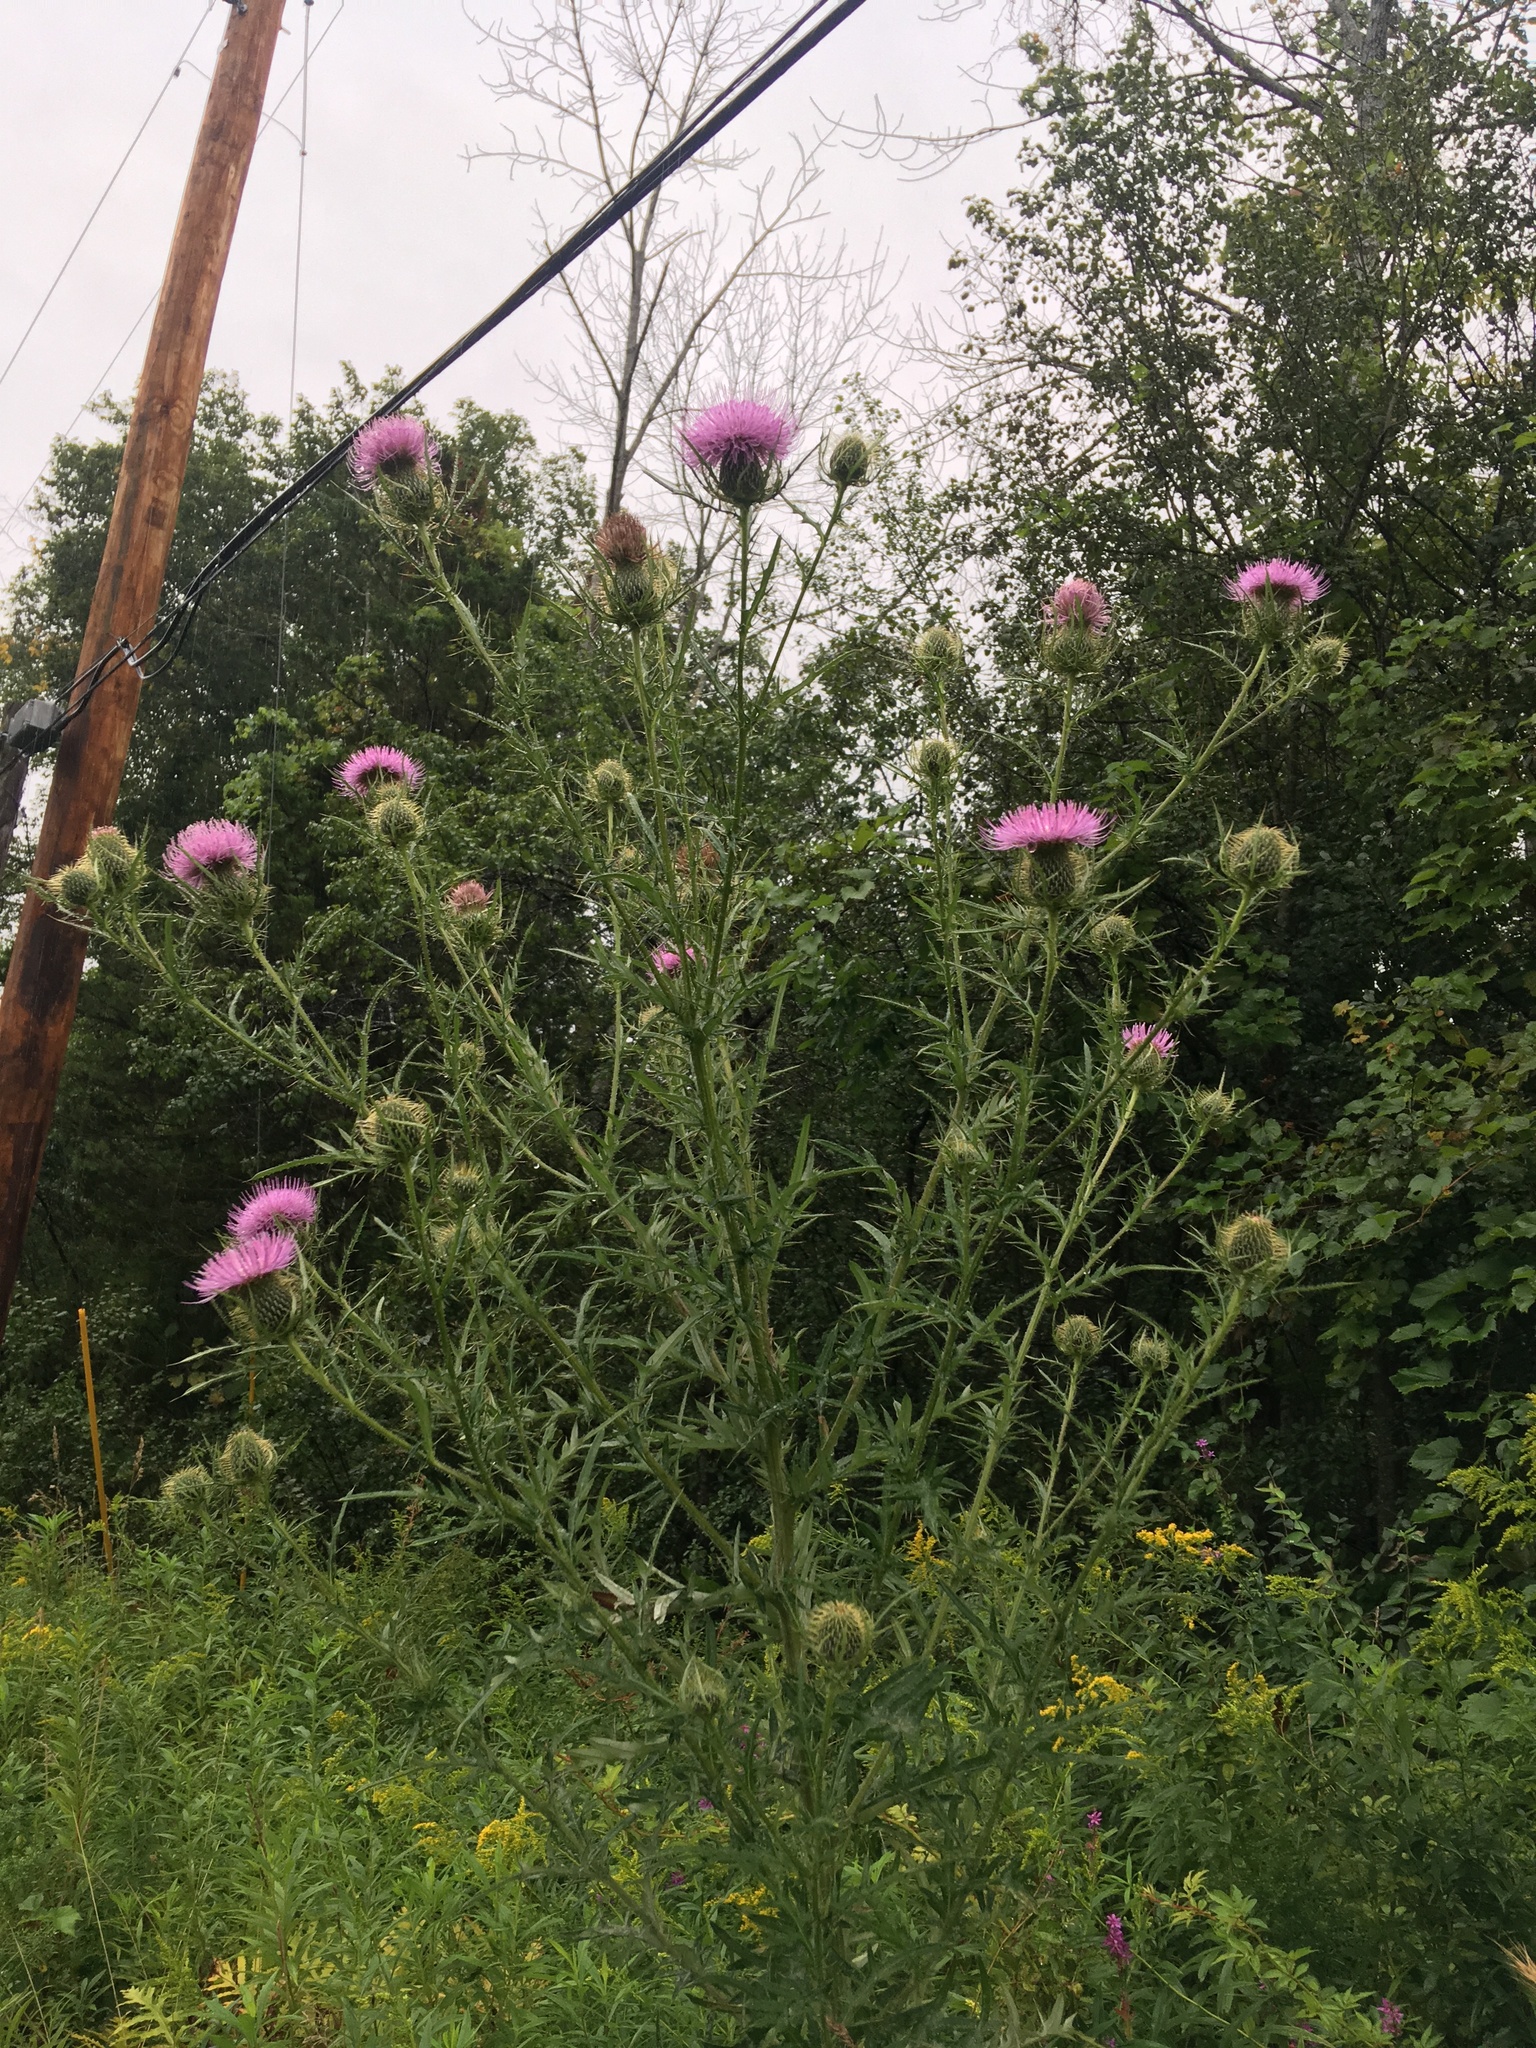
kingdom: Plantae
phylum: Tracheophyta
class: Magnoliopsida
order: Asterales
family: Asteraceae
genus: Cirsium
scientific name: Cirsium discolor
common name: Field thistle
